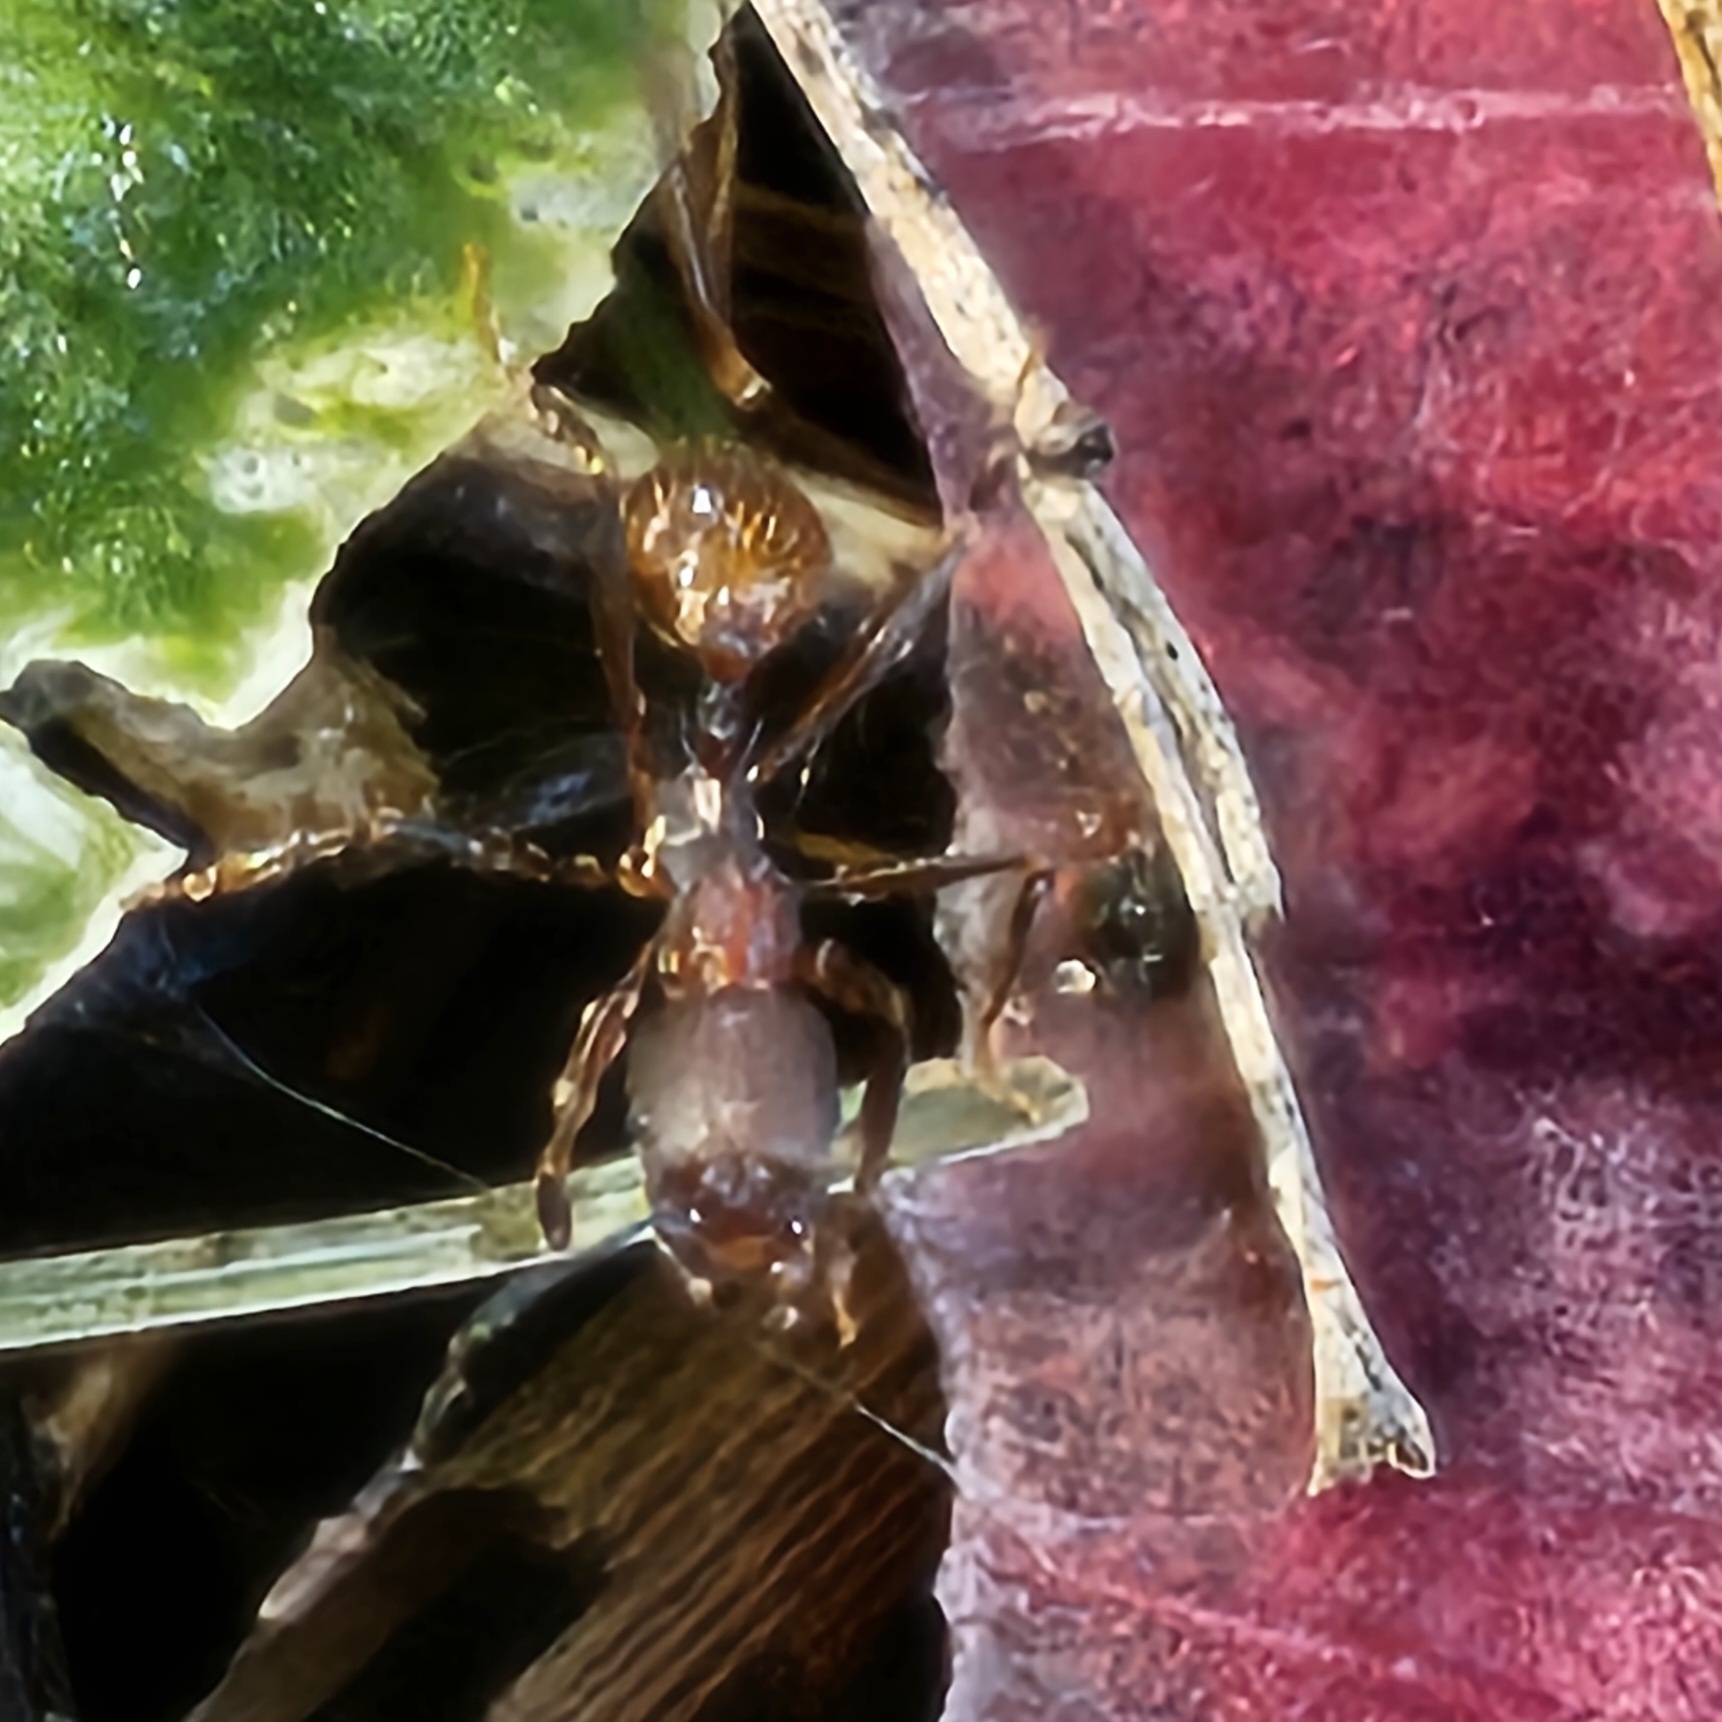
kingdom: Animalia
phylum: Arthropoda
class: Insecta
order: Hymenoptera
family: Formicidae
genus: Aphaenogaster
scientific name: Aphaenogaster fulva
